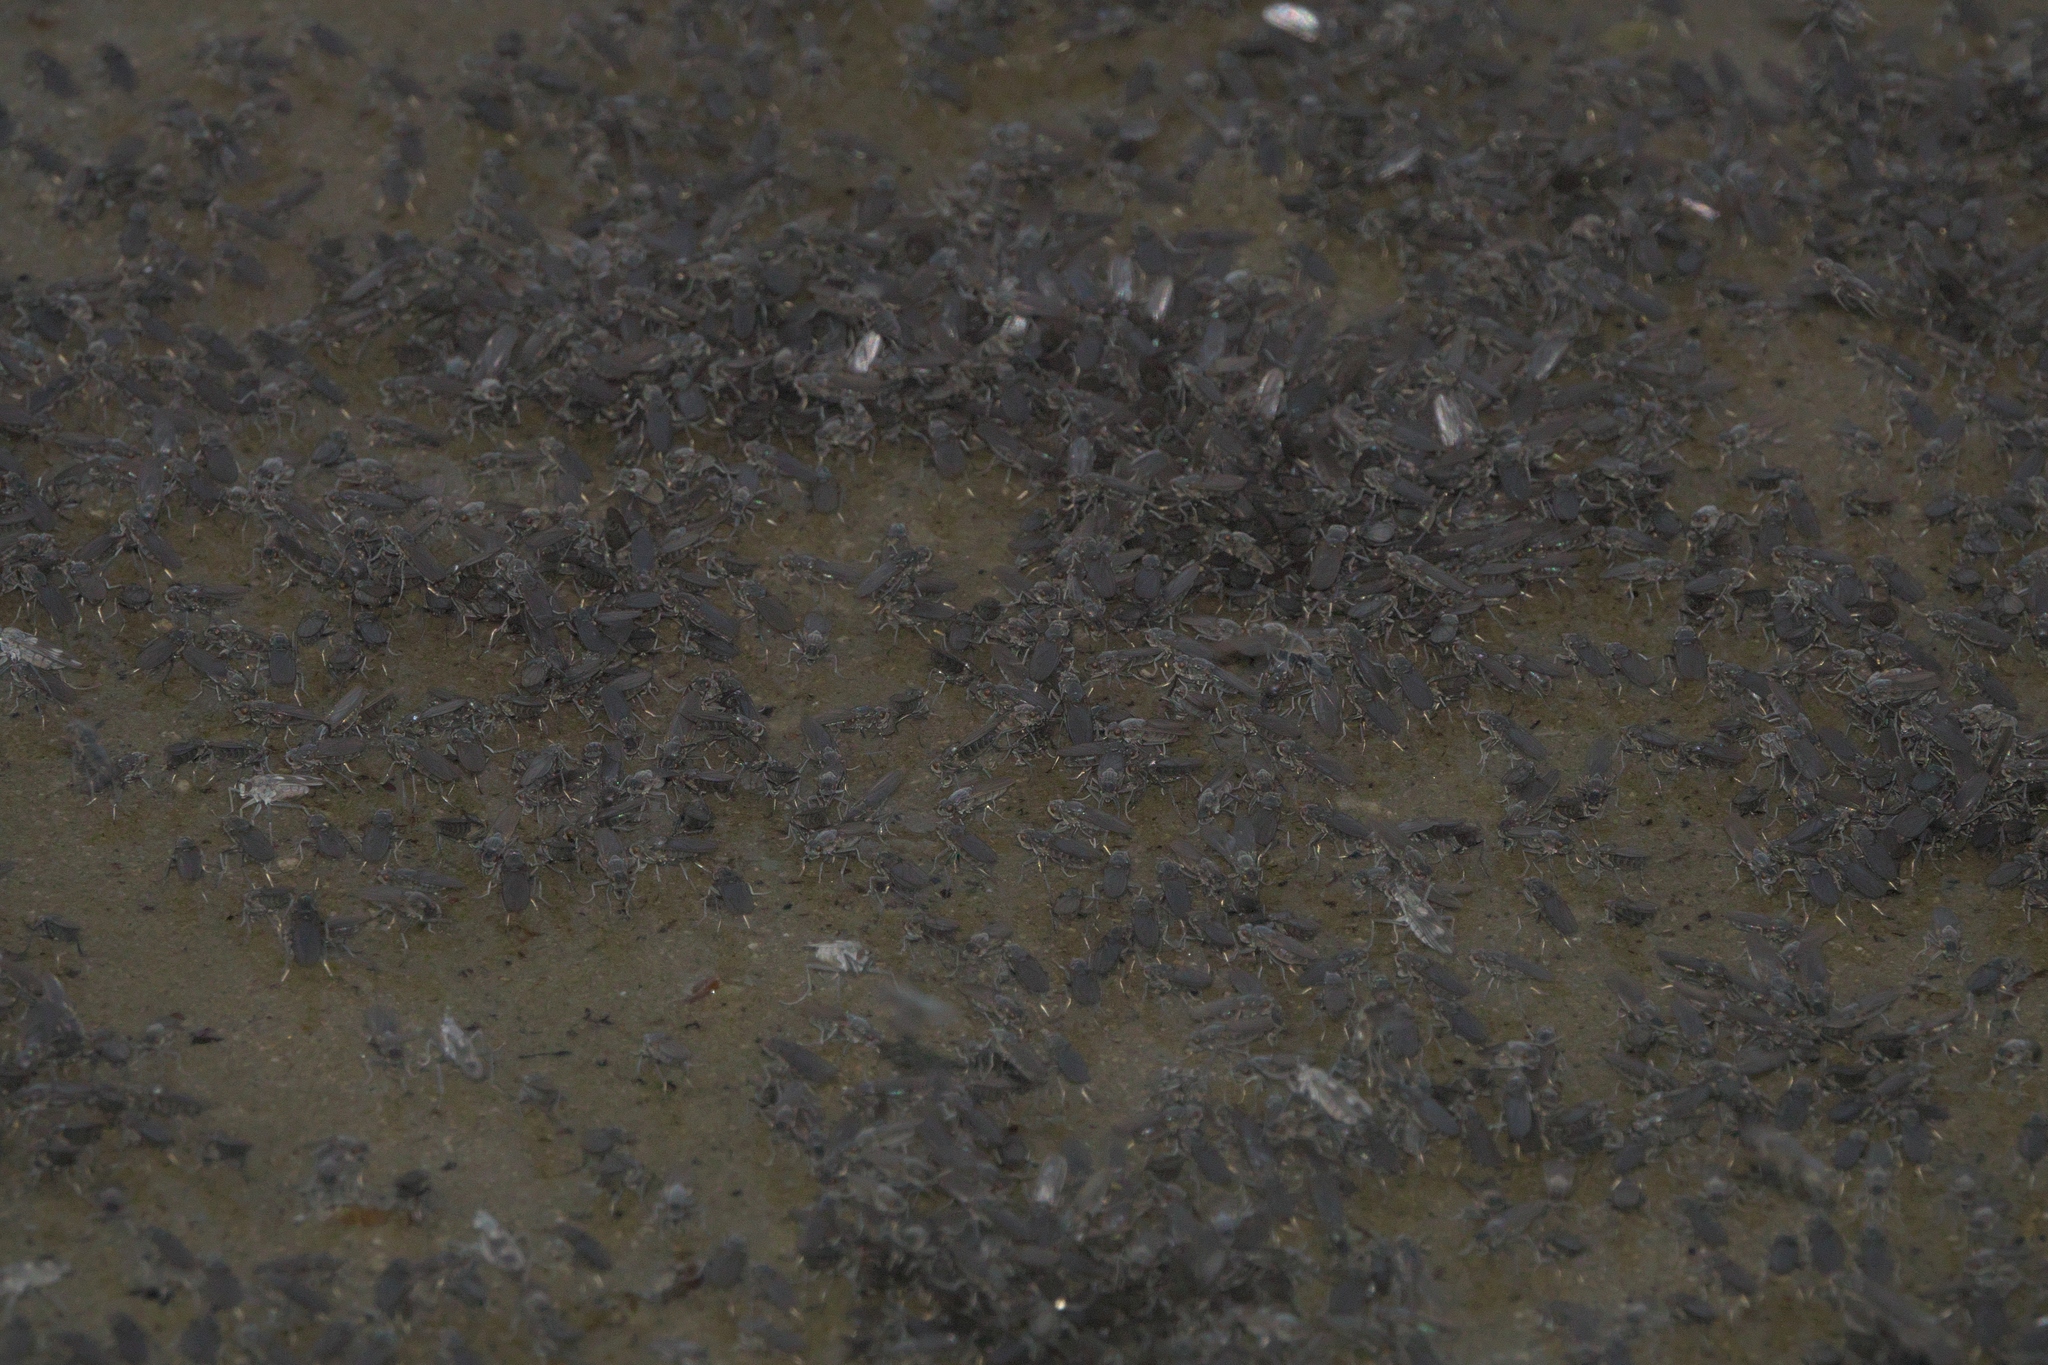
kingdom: Animalia
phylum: Arthropoda
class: Insecta
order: Diptera
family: Ephydridae
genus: Cirrula
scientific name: Cirrula hians
